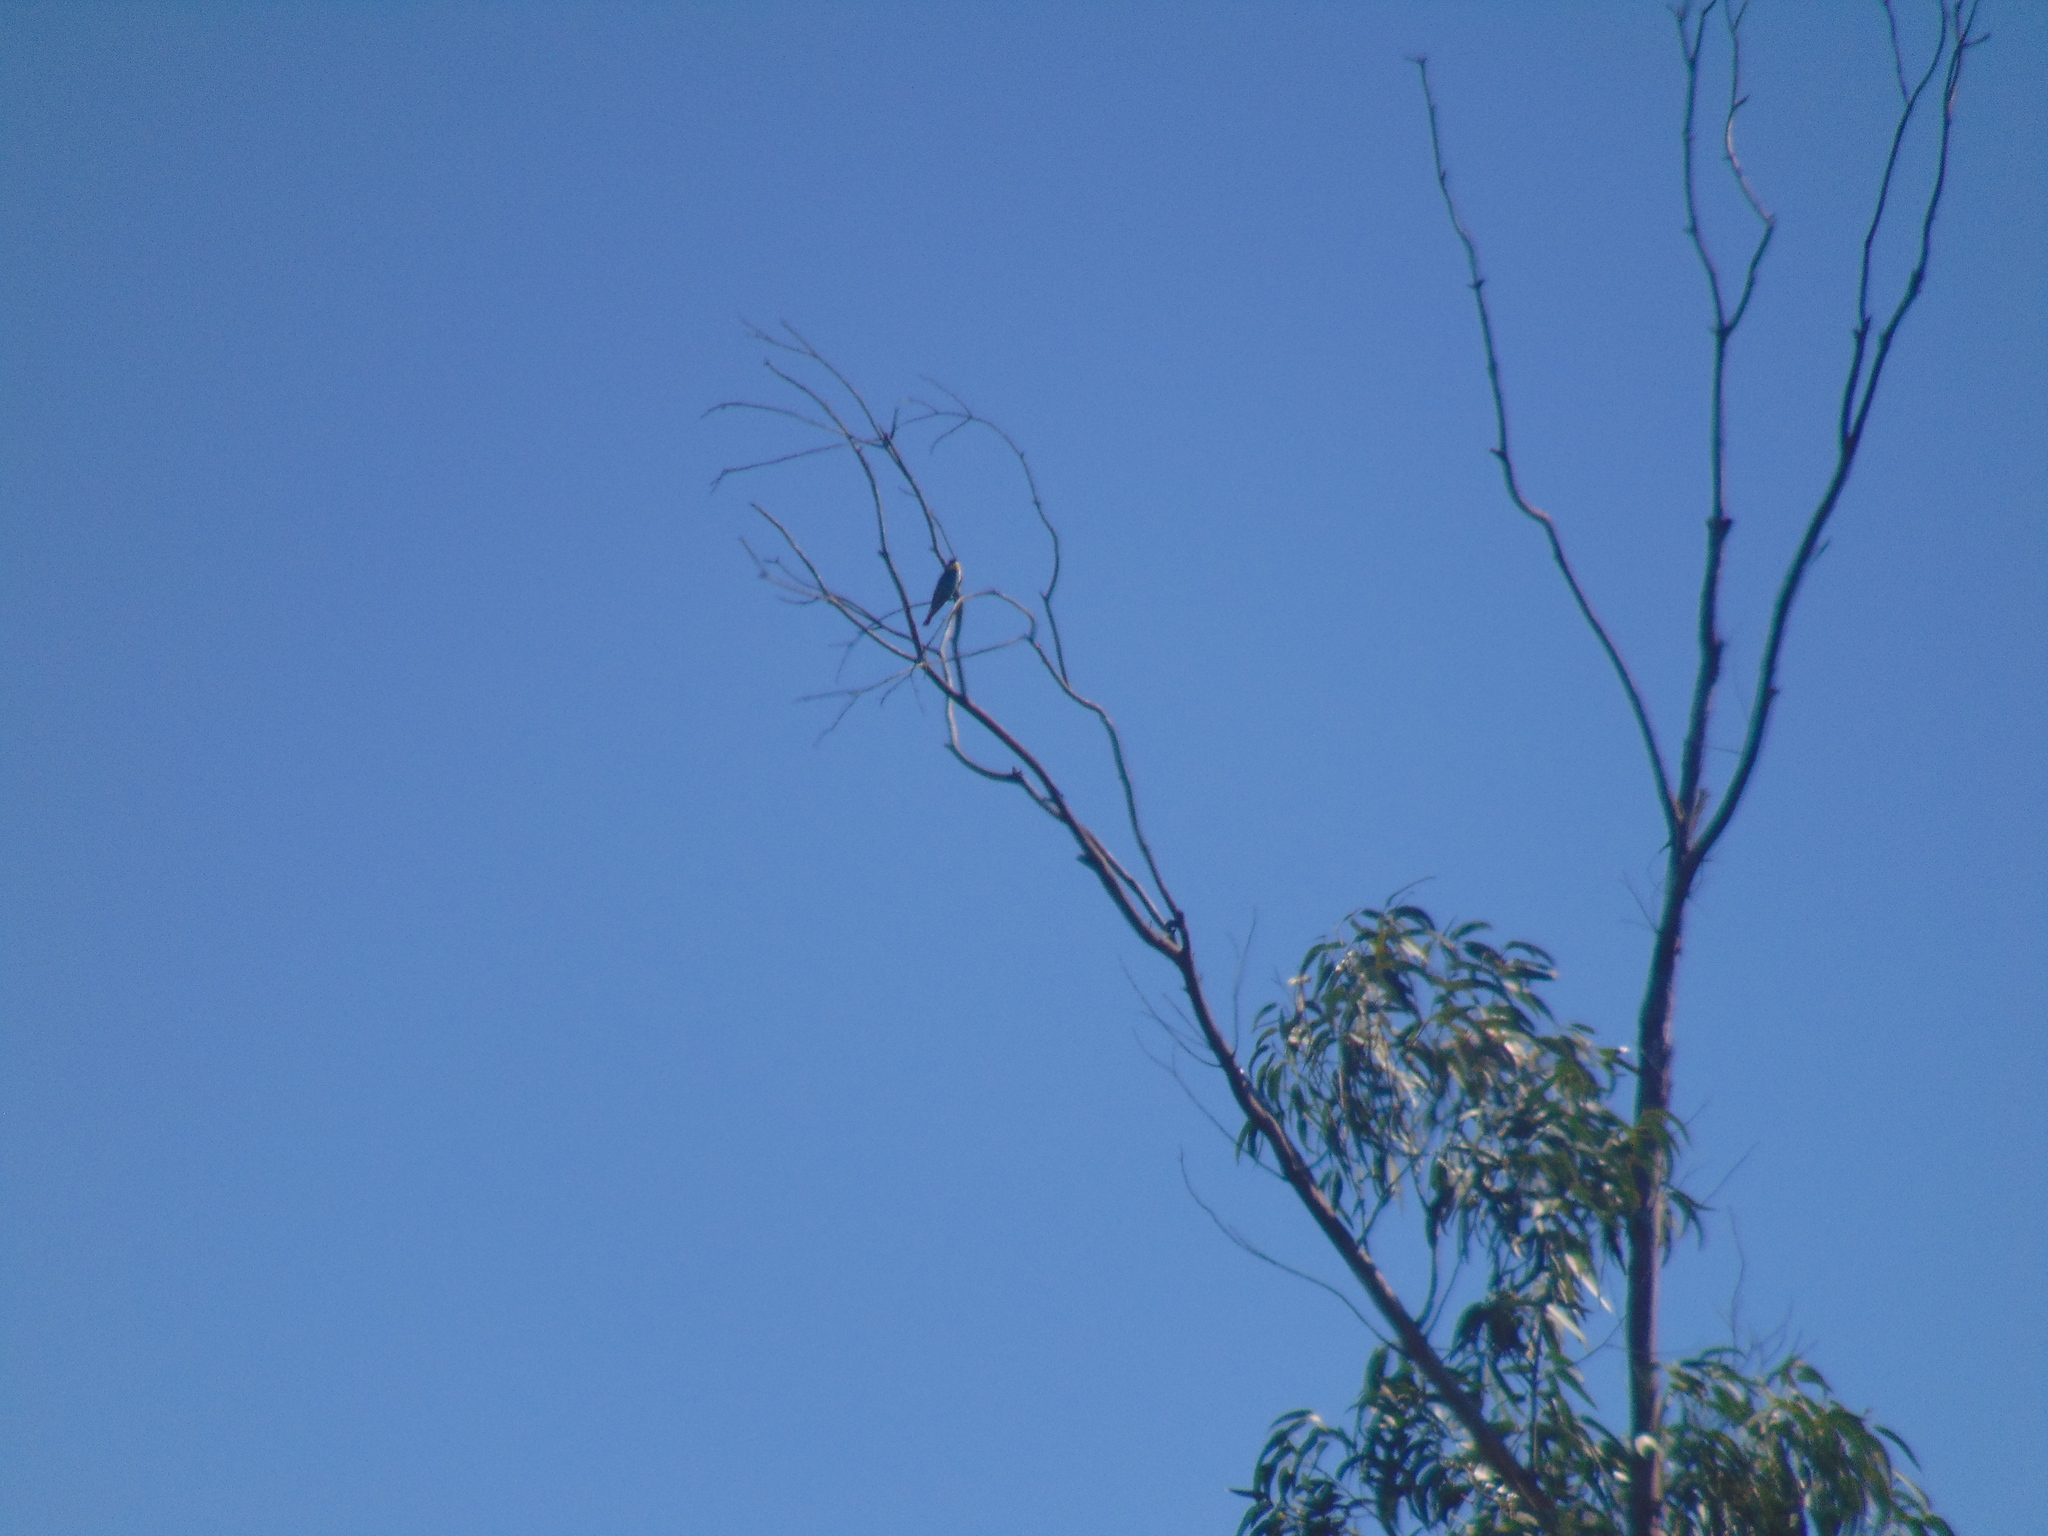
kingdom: Animalia
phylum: Chordata
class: Aves
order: Coraciiformes
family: Meropidae
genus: Merops
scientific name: Merops apiaster
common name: European bee-eater
